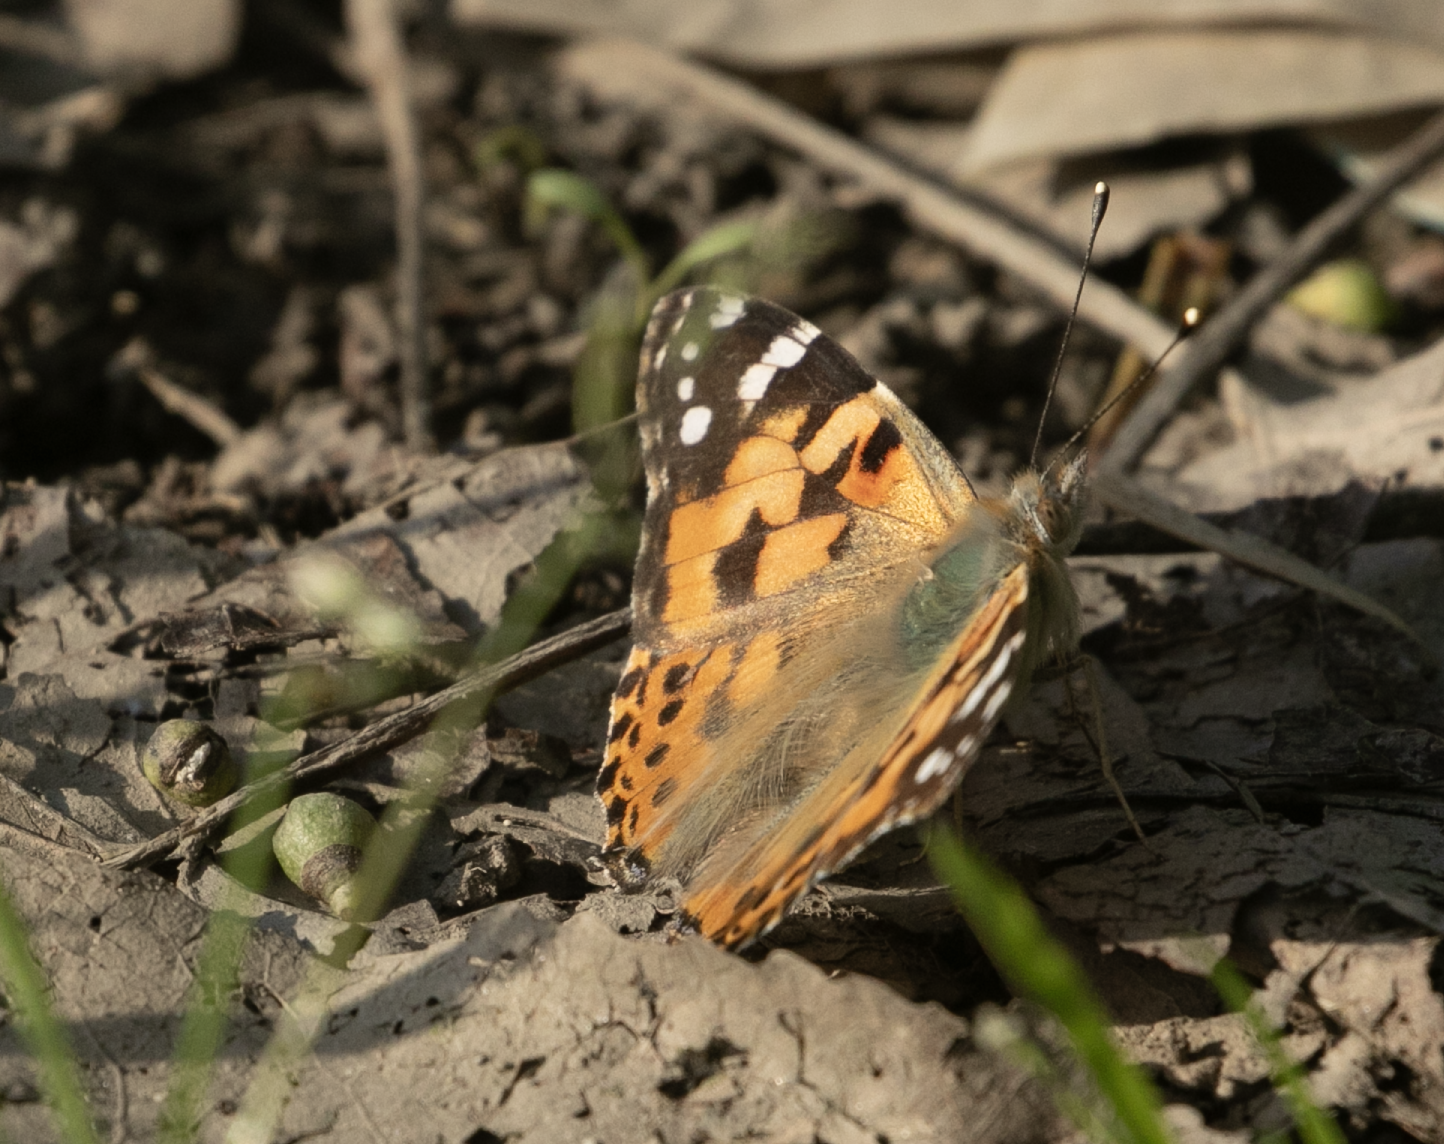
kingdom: Animalia
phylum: Arthropoda
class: Insecta
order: Lepidoptera
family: Nymphalidae
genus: Vanessa
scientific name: Vanessa cardui
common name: Painted lady
